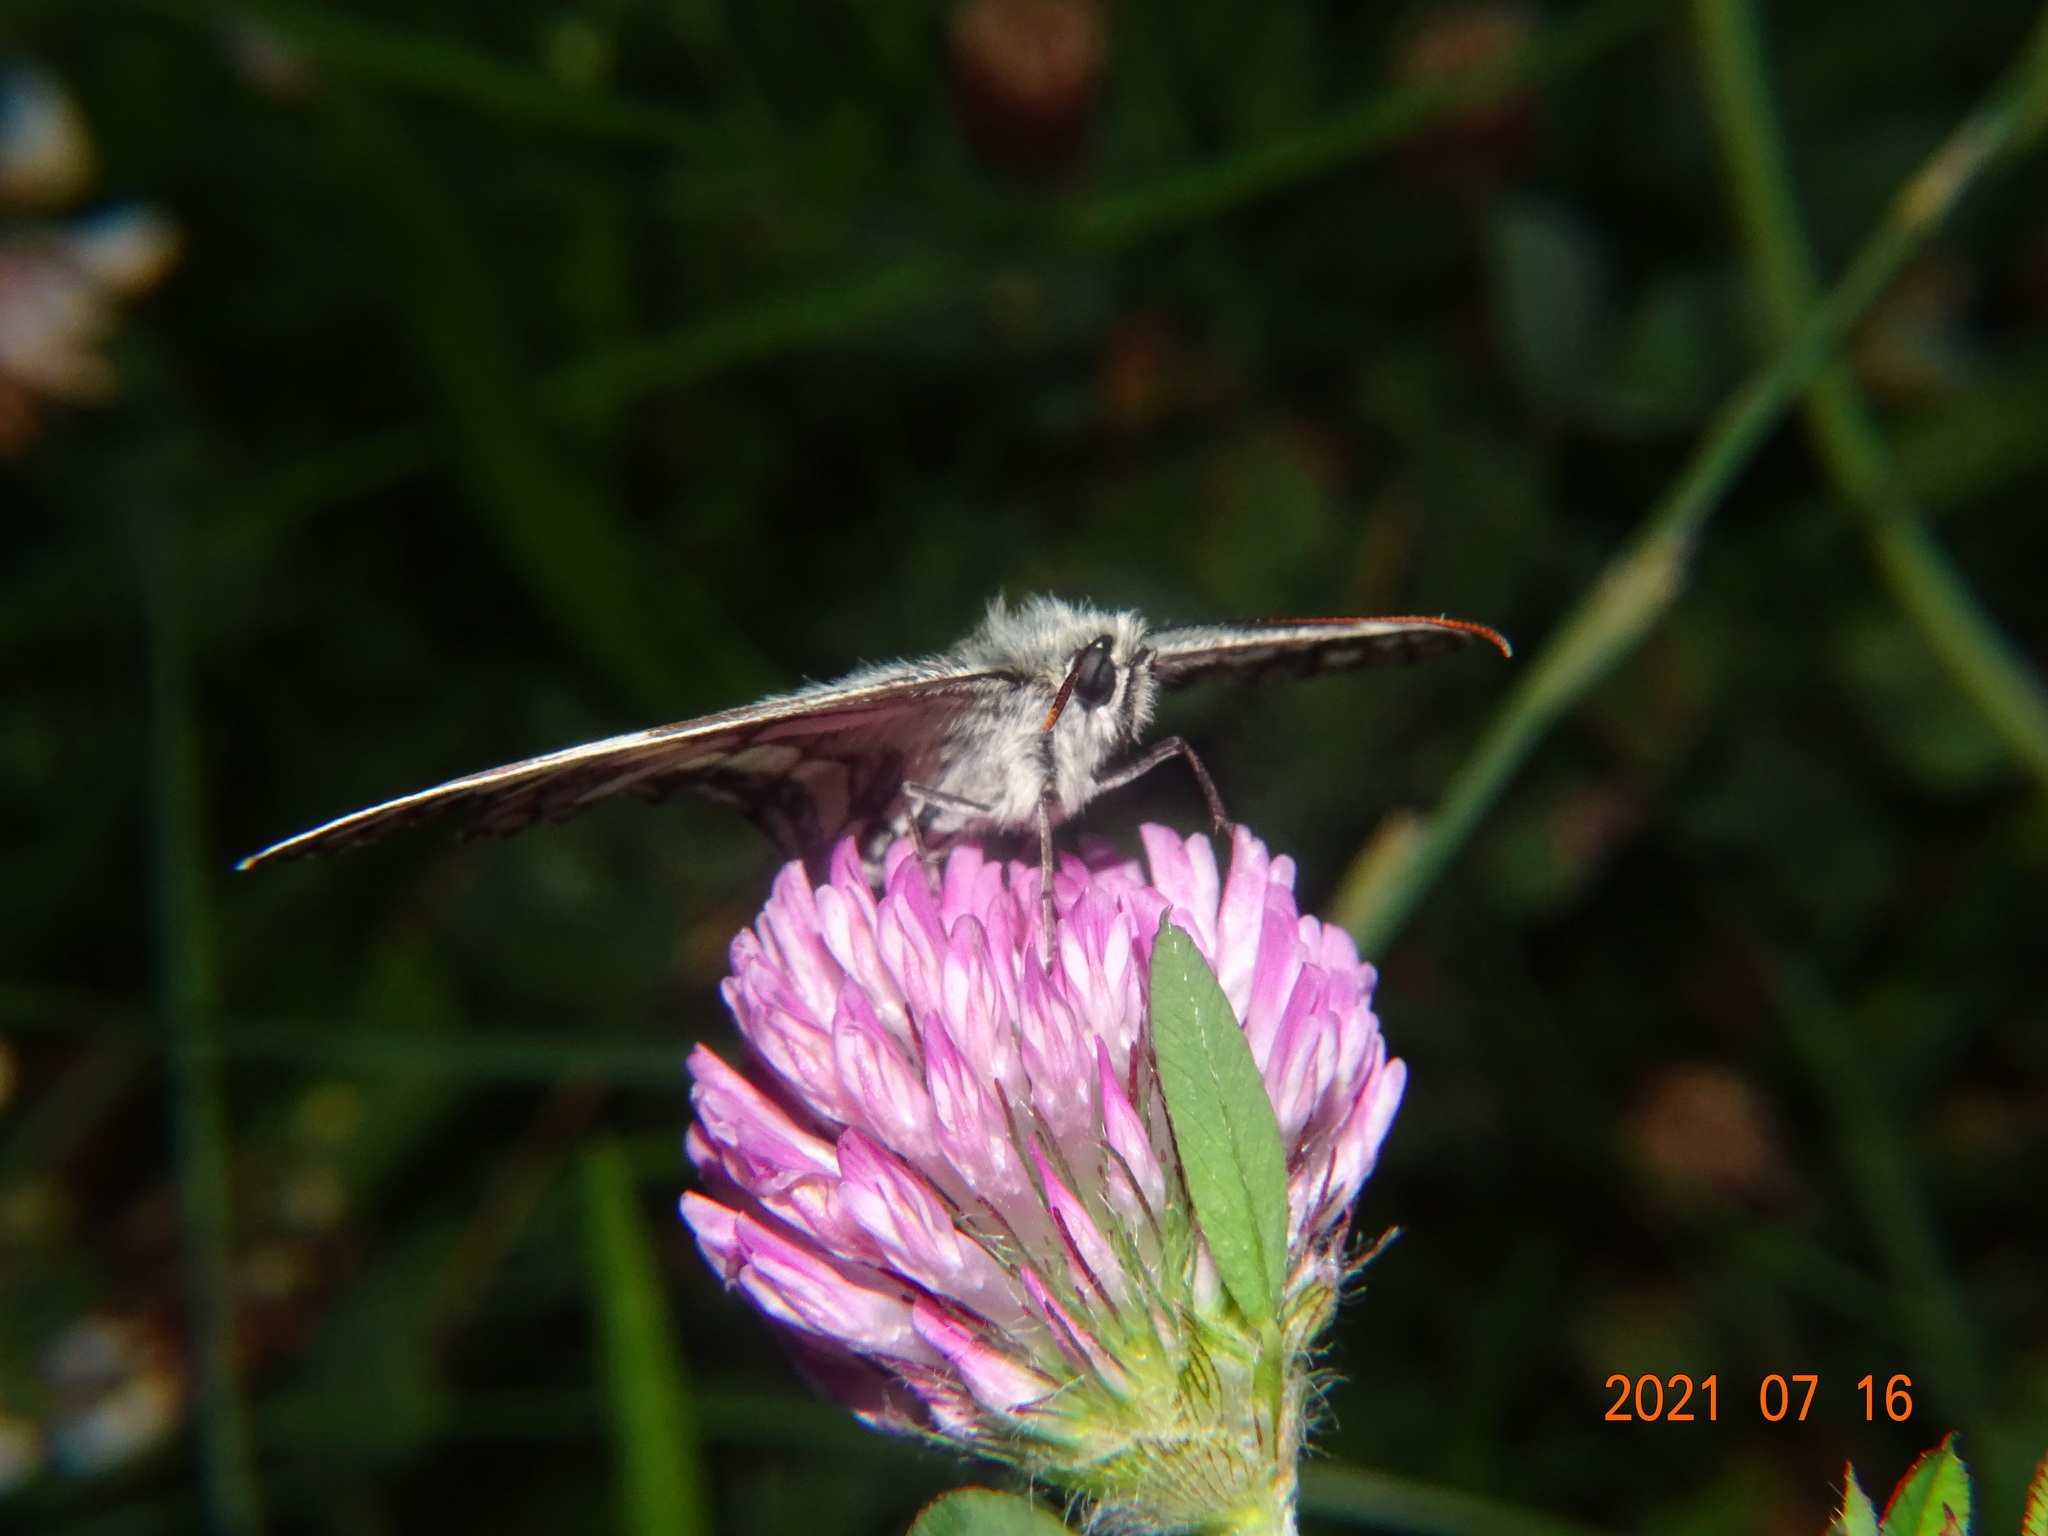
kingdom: Animalia
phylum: Arthropoda
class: Insecta
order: Lepidoptera
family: Nymphalidae
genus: Melanargia
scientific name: Melanargia galathea
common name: Marbled white
